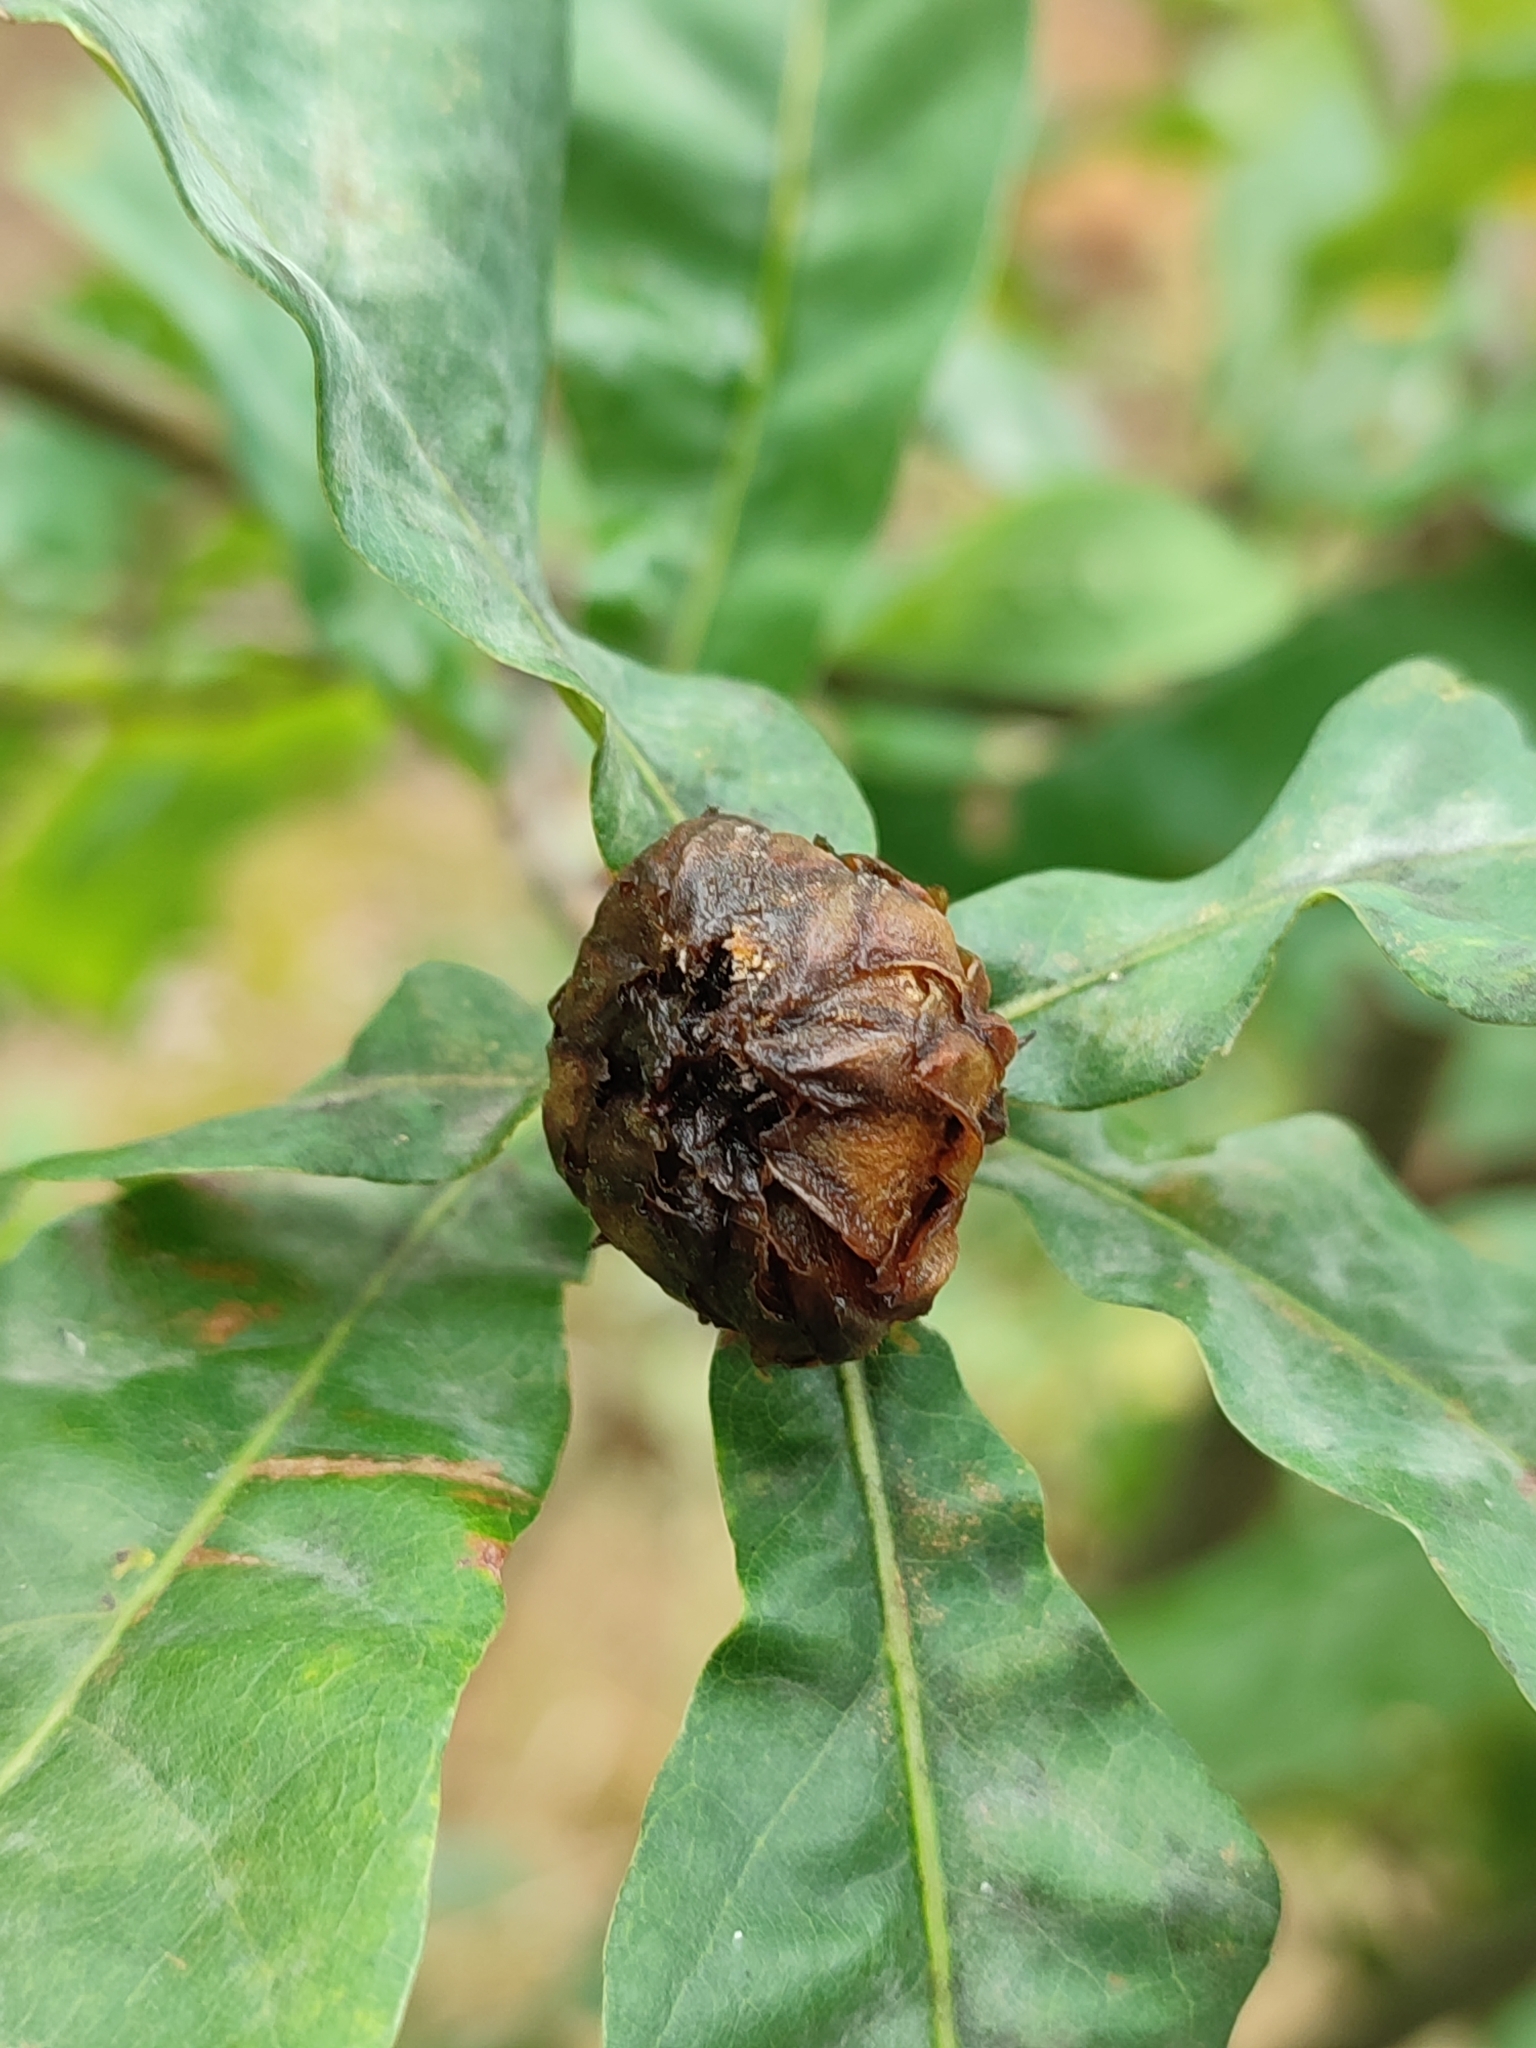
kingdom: Animalia
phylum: Arthropoda
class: Insecta
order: Hymenoptera
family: Cynipidae
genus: Andricus
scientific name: Andricus foecundatrix
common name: Artichoke gall
